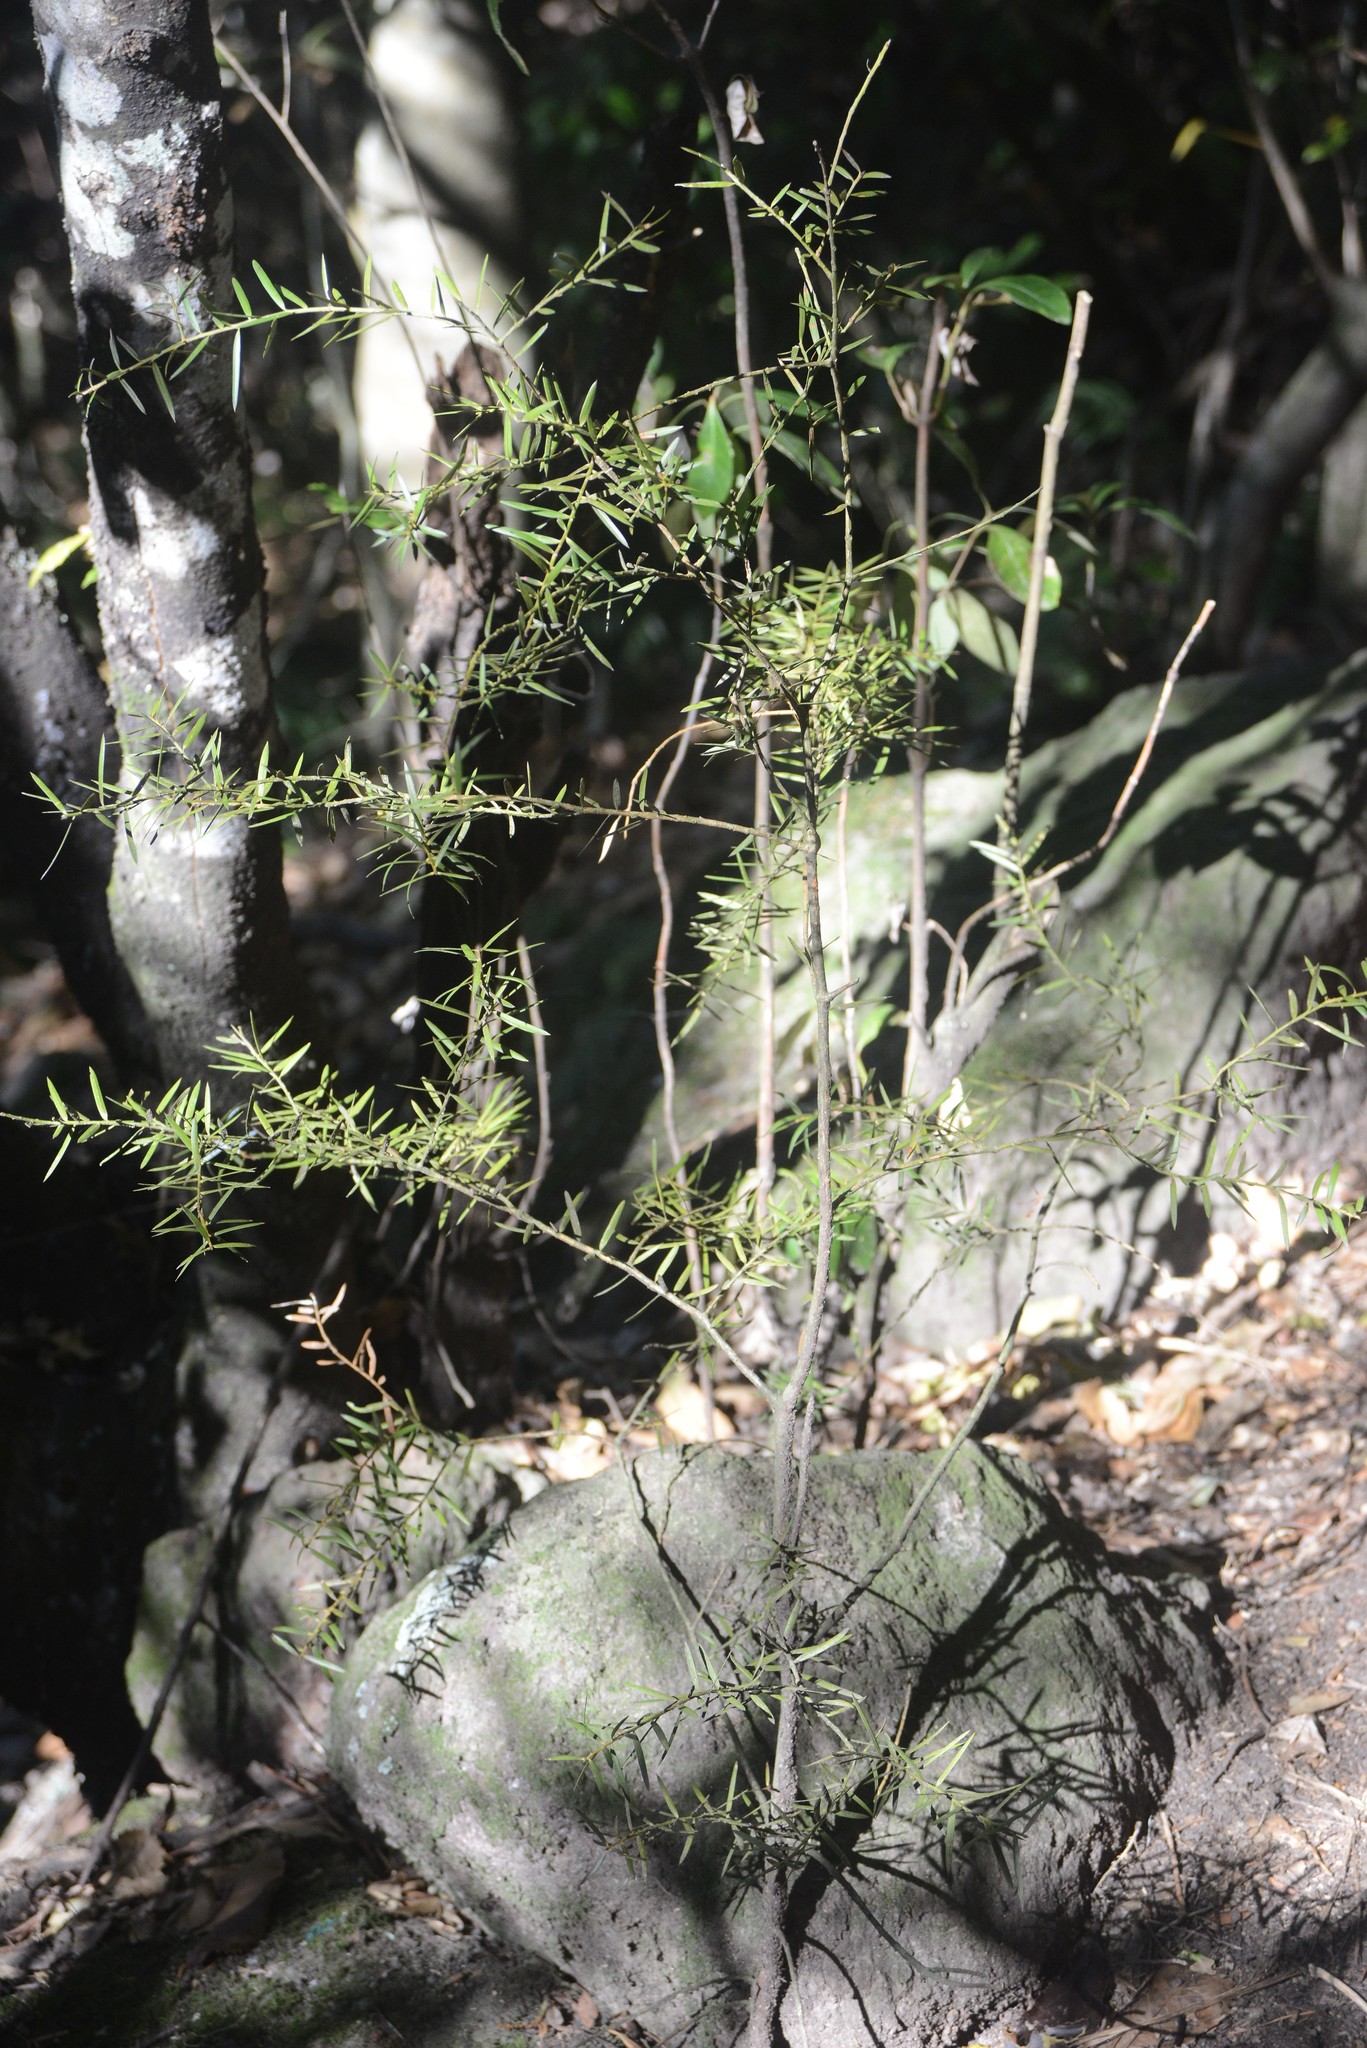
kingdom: Plantae
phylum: Tracheophyta
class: Pinopsida
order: Pinales
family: Podocarpaceae
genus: Podocarpus
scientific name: Podocarpus totara
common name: Totara
